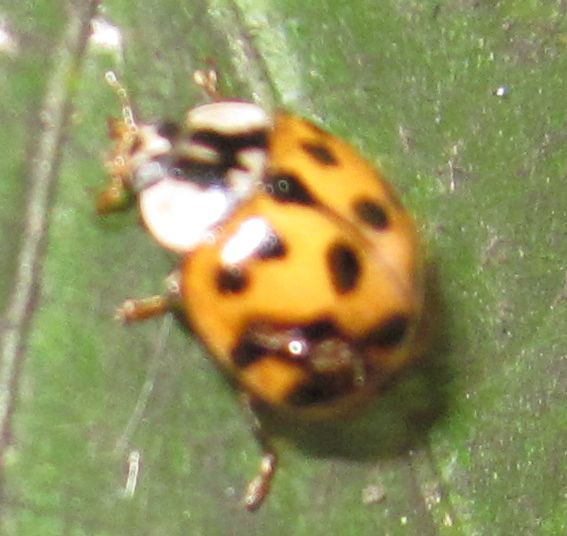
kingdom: Animalia
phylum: Arthropoda
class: Insecta
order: Coleoptera
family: Coccinellidae
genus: Harmonia
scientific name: Harmonia axyridis
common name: Harlequin ladybird
